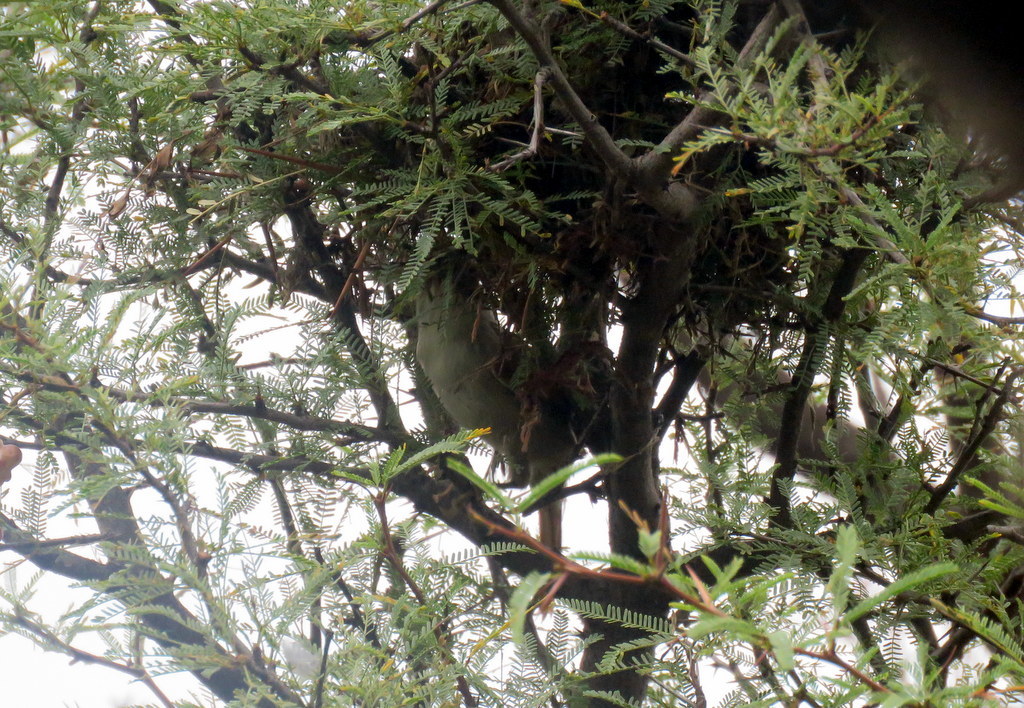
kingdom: Animalia
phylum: Chordata
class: Aves
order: Passeriformes
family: Furnariidae
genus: Cranioleuca
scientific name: Cranioleuca pyrrhophia
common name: Stripe-crowned spinetail
